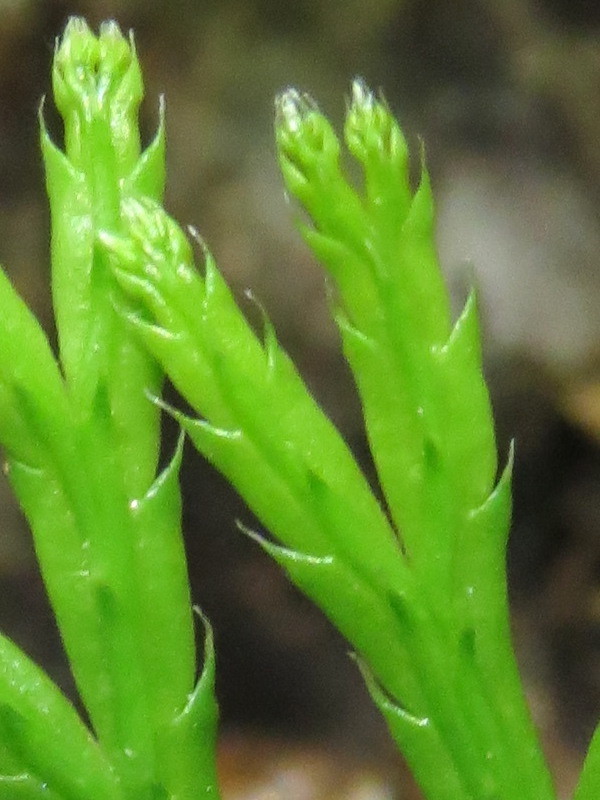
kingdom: Plantae
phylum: Tracheophyta
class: Lycopodiopsida
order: Lycopodiales
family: Lycopodiaceae
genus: Diphasiastrum
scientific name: Diphasiastrum digitatum
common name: Southern running-pine
